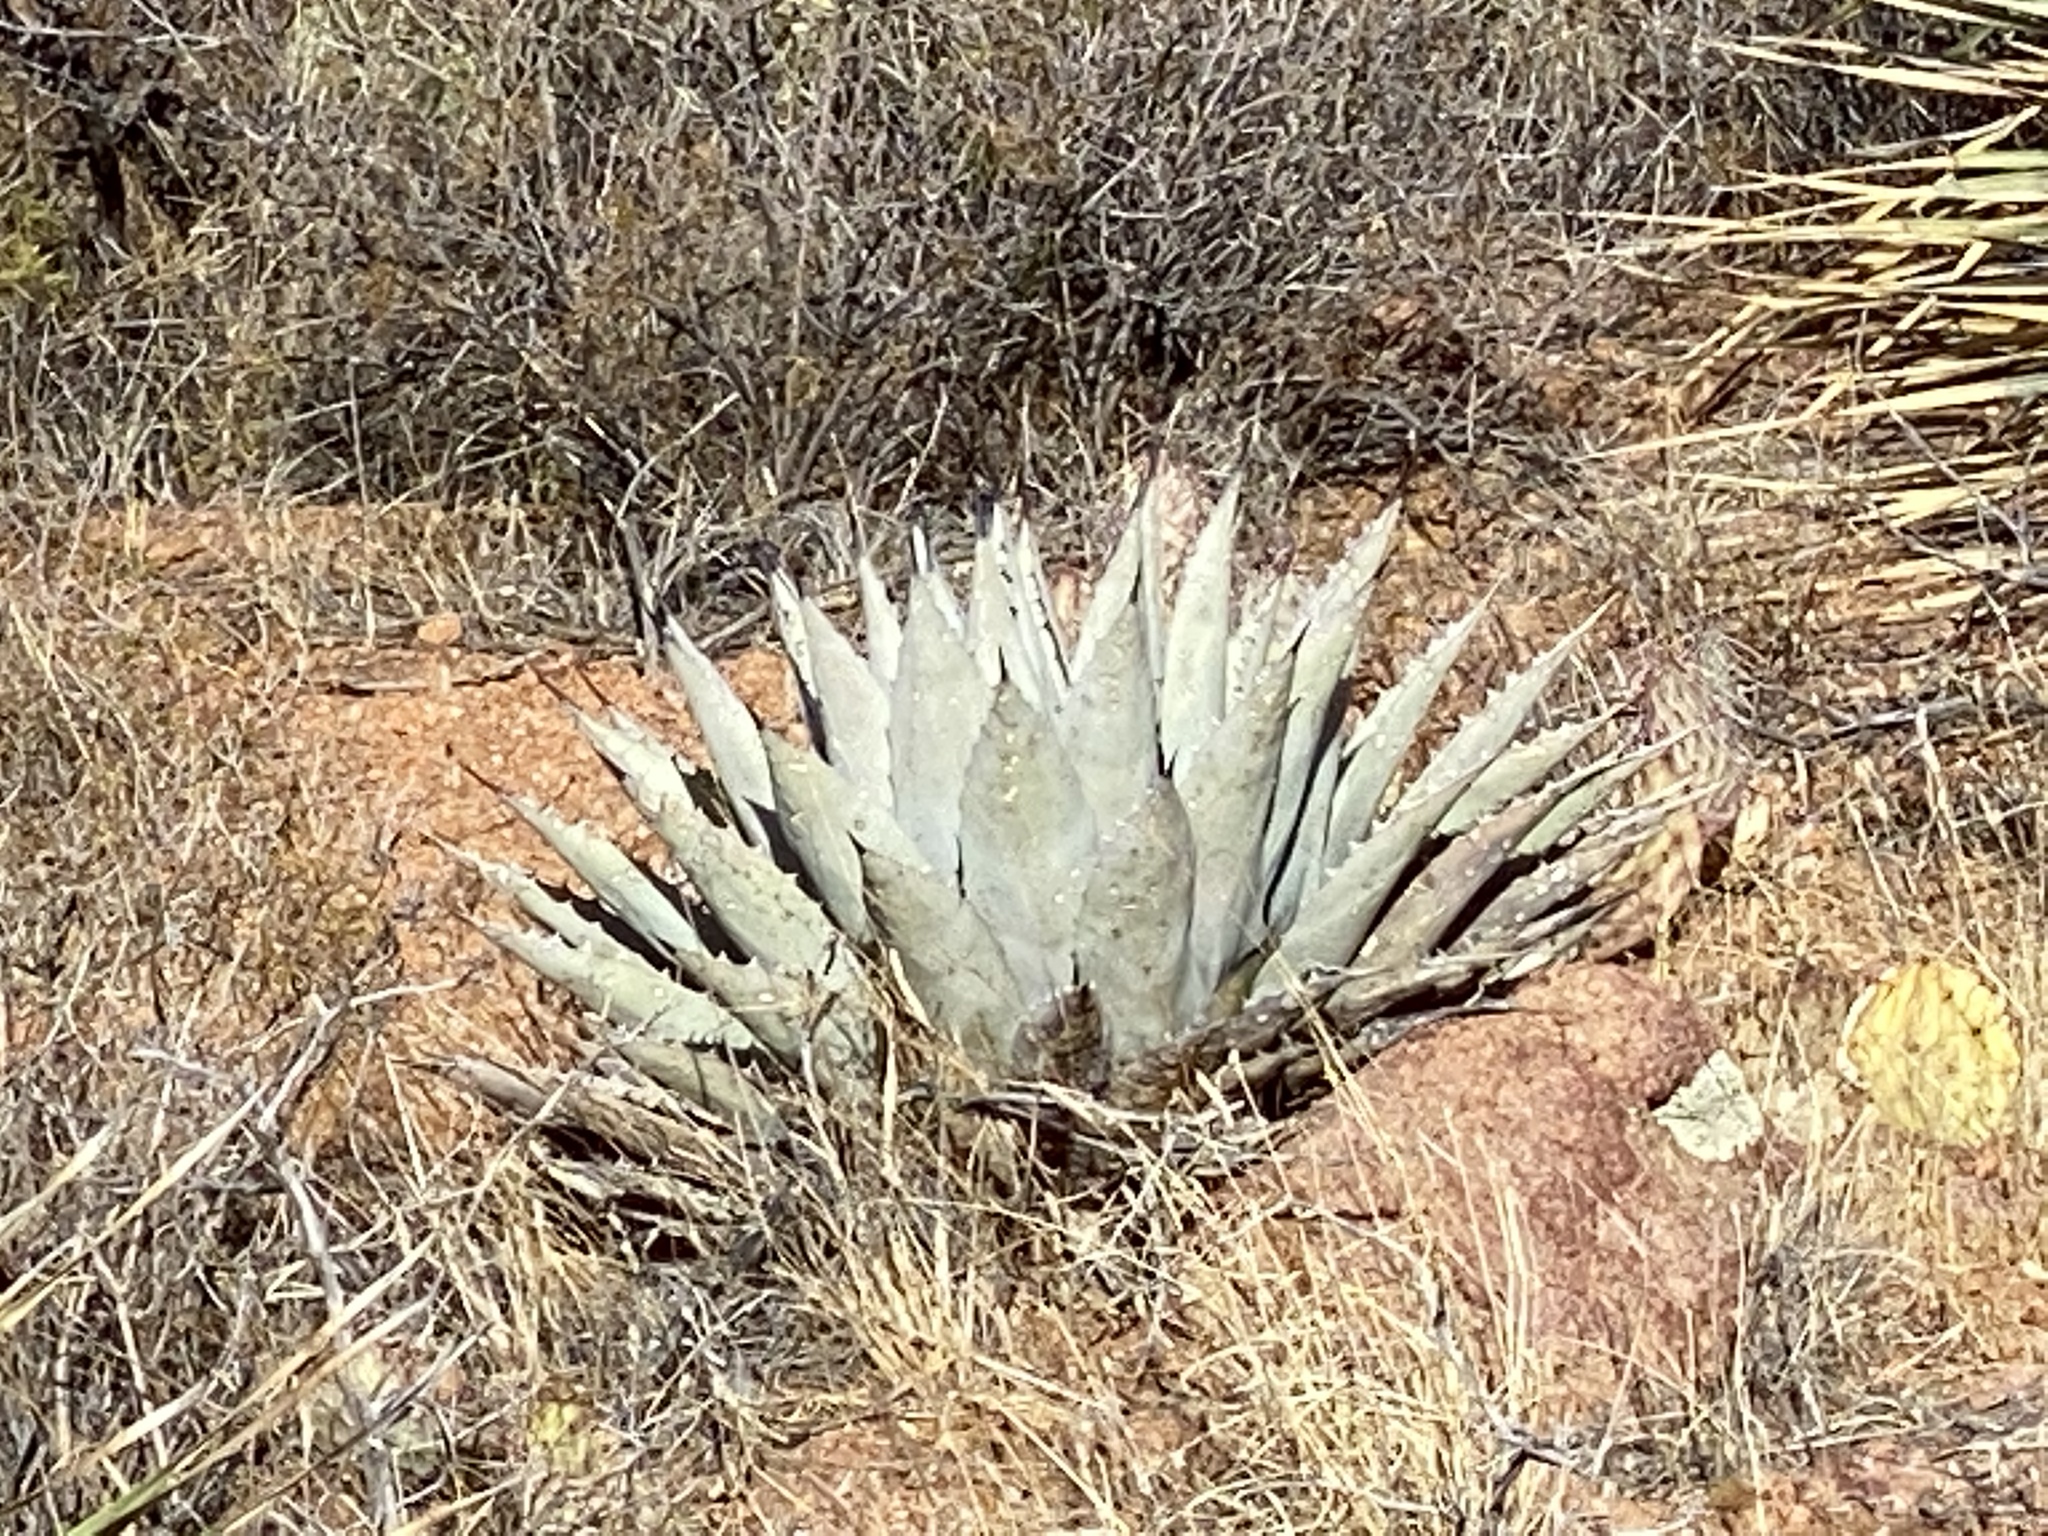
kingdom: Plantae
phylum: Tracheophyta
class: Liliopsida
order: Asparagales
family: Asparagaceae
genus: Agave
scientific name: Agave parryi
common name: Parry's agave
